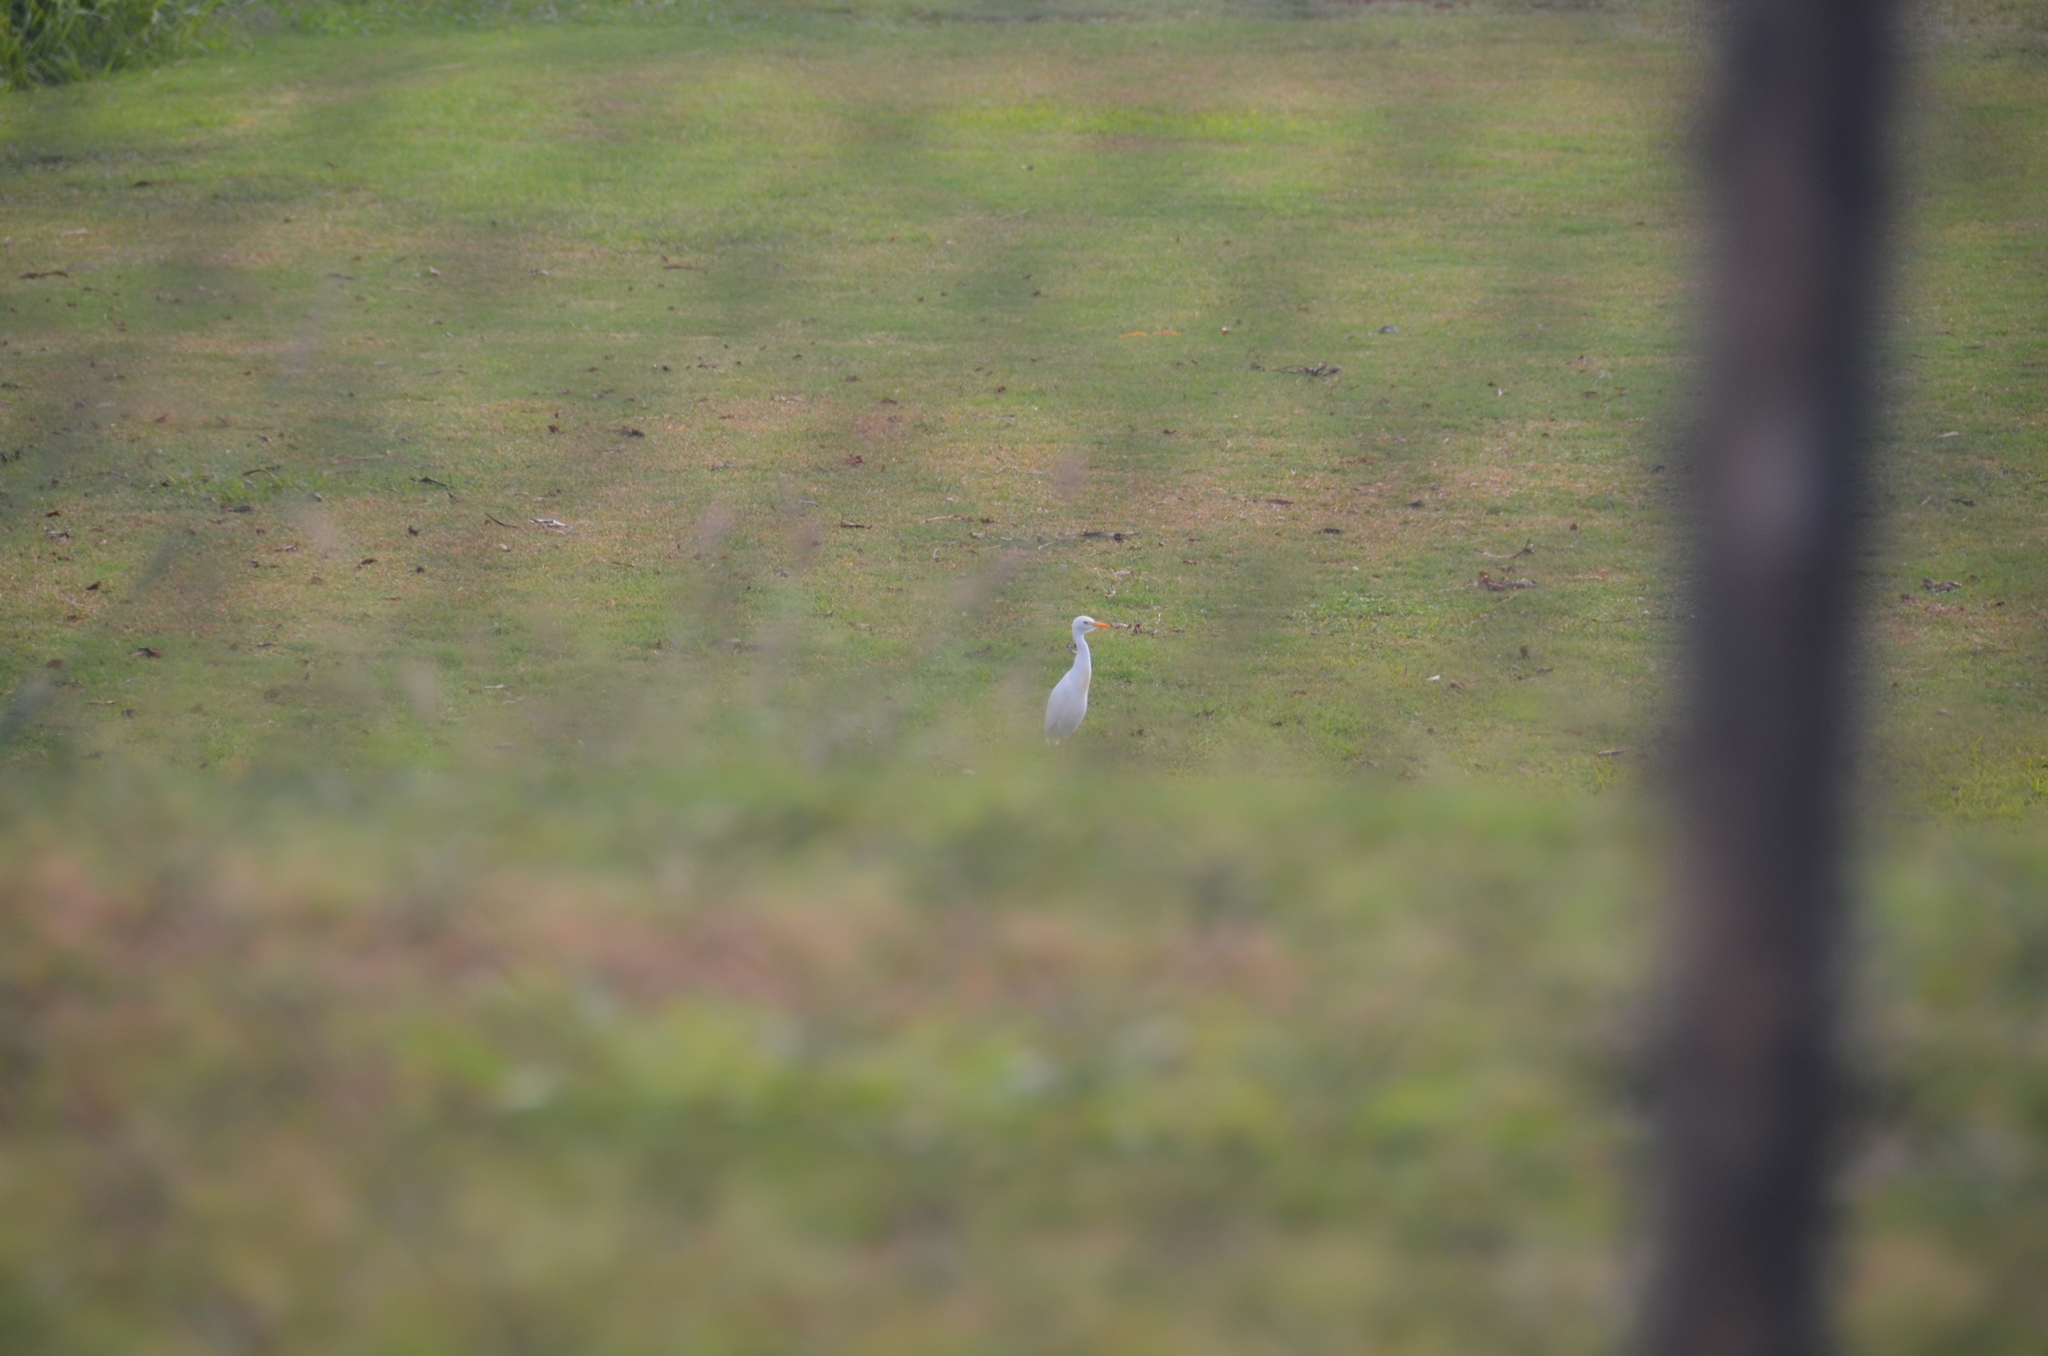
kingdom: Animalia
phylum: Chordata
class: Aves
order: Pelecaniformes
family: Ardeidae
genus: Bubulcus
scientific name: Bubulcus ibis
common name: Cattle egret
